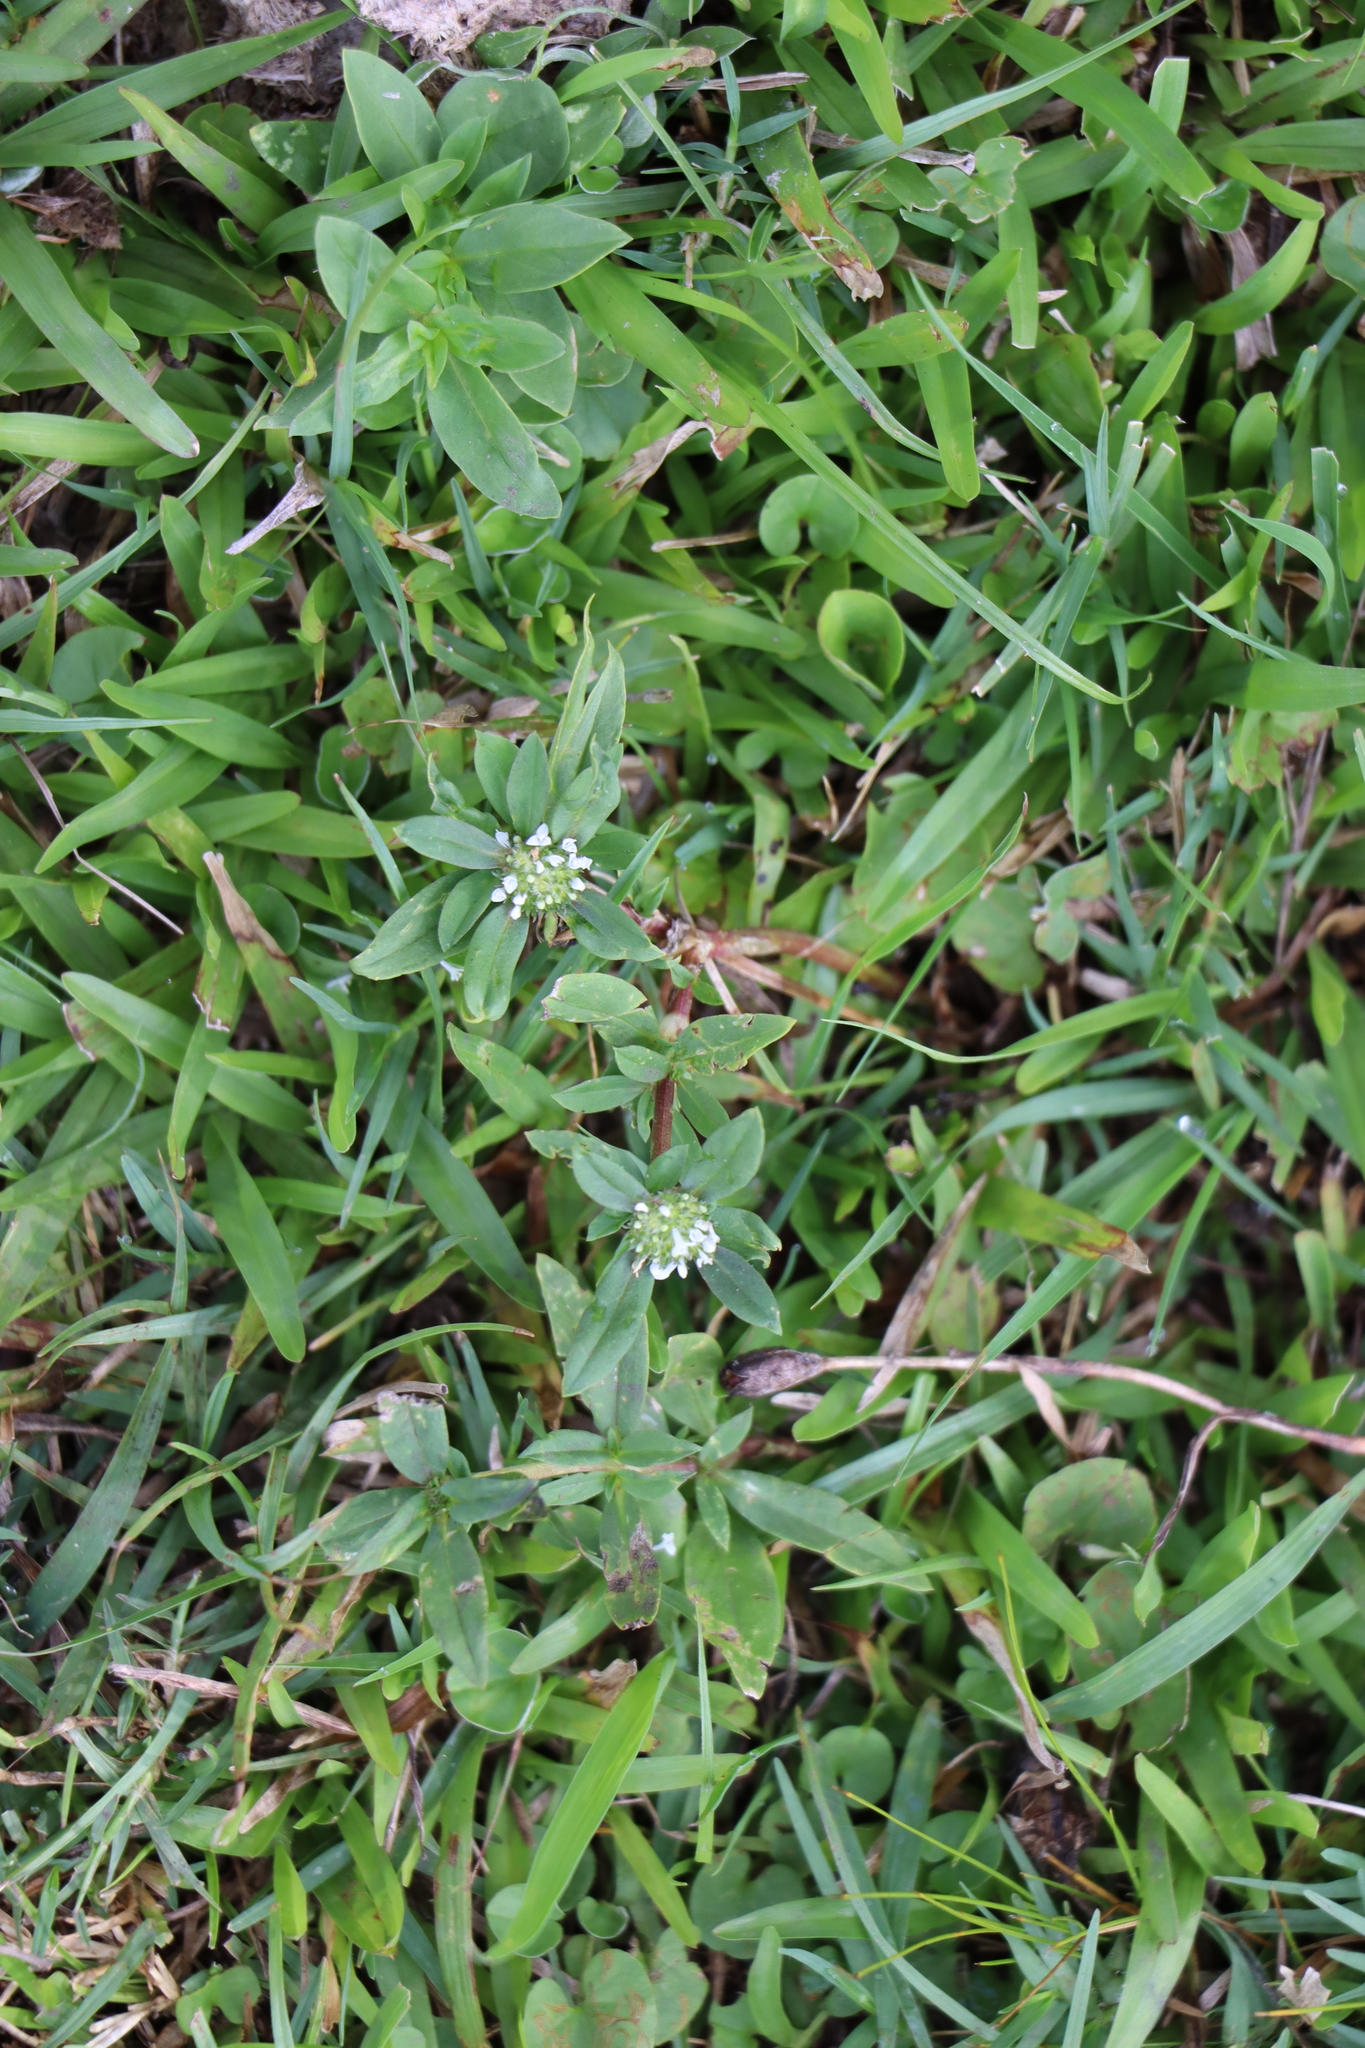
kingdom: Plantae
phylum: Tracheophyta
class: Magnoliopsida
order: Gentianales
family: Rubiaceae
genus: Spermacoce
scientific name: Spermacoce dasycephala
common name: False buttonweed
